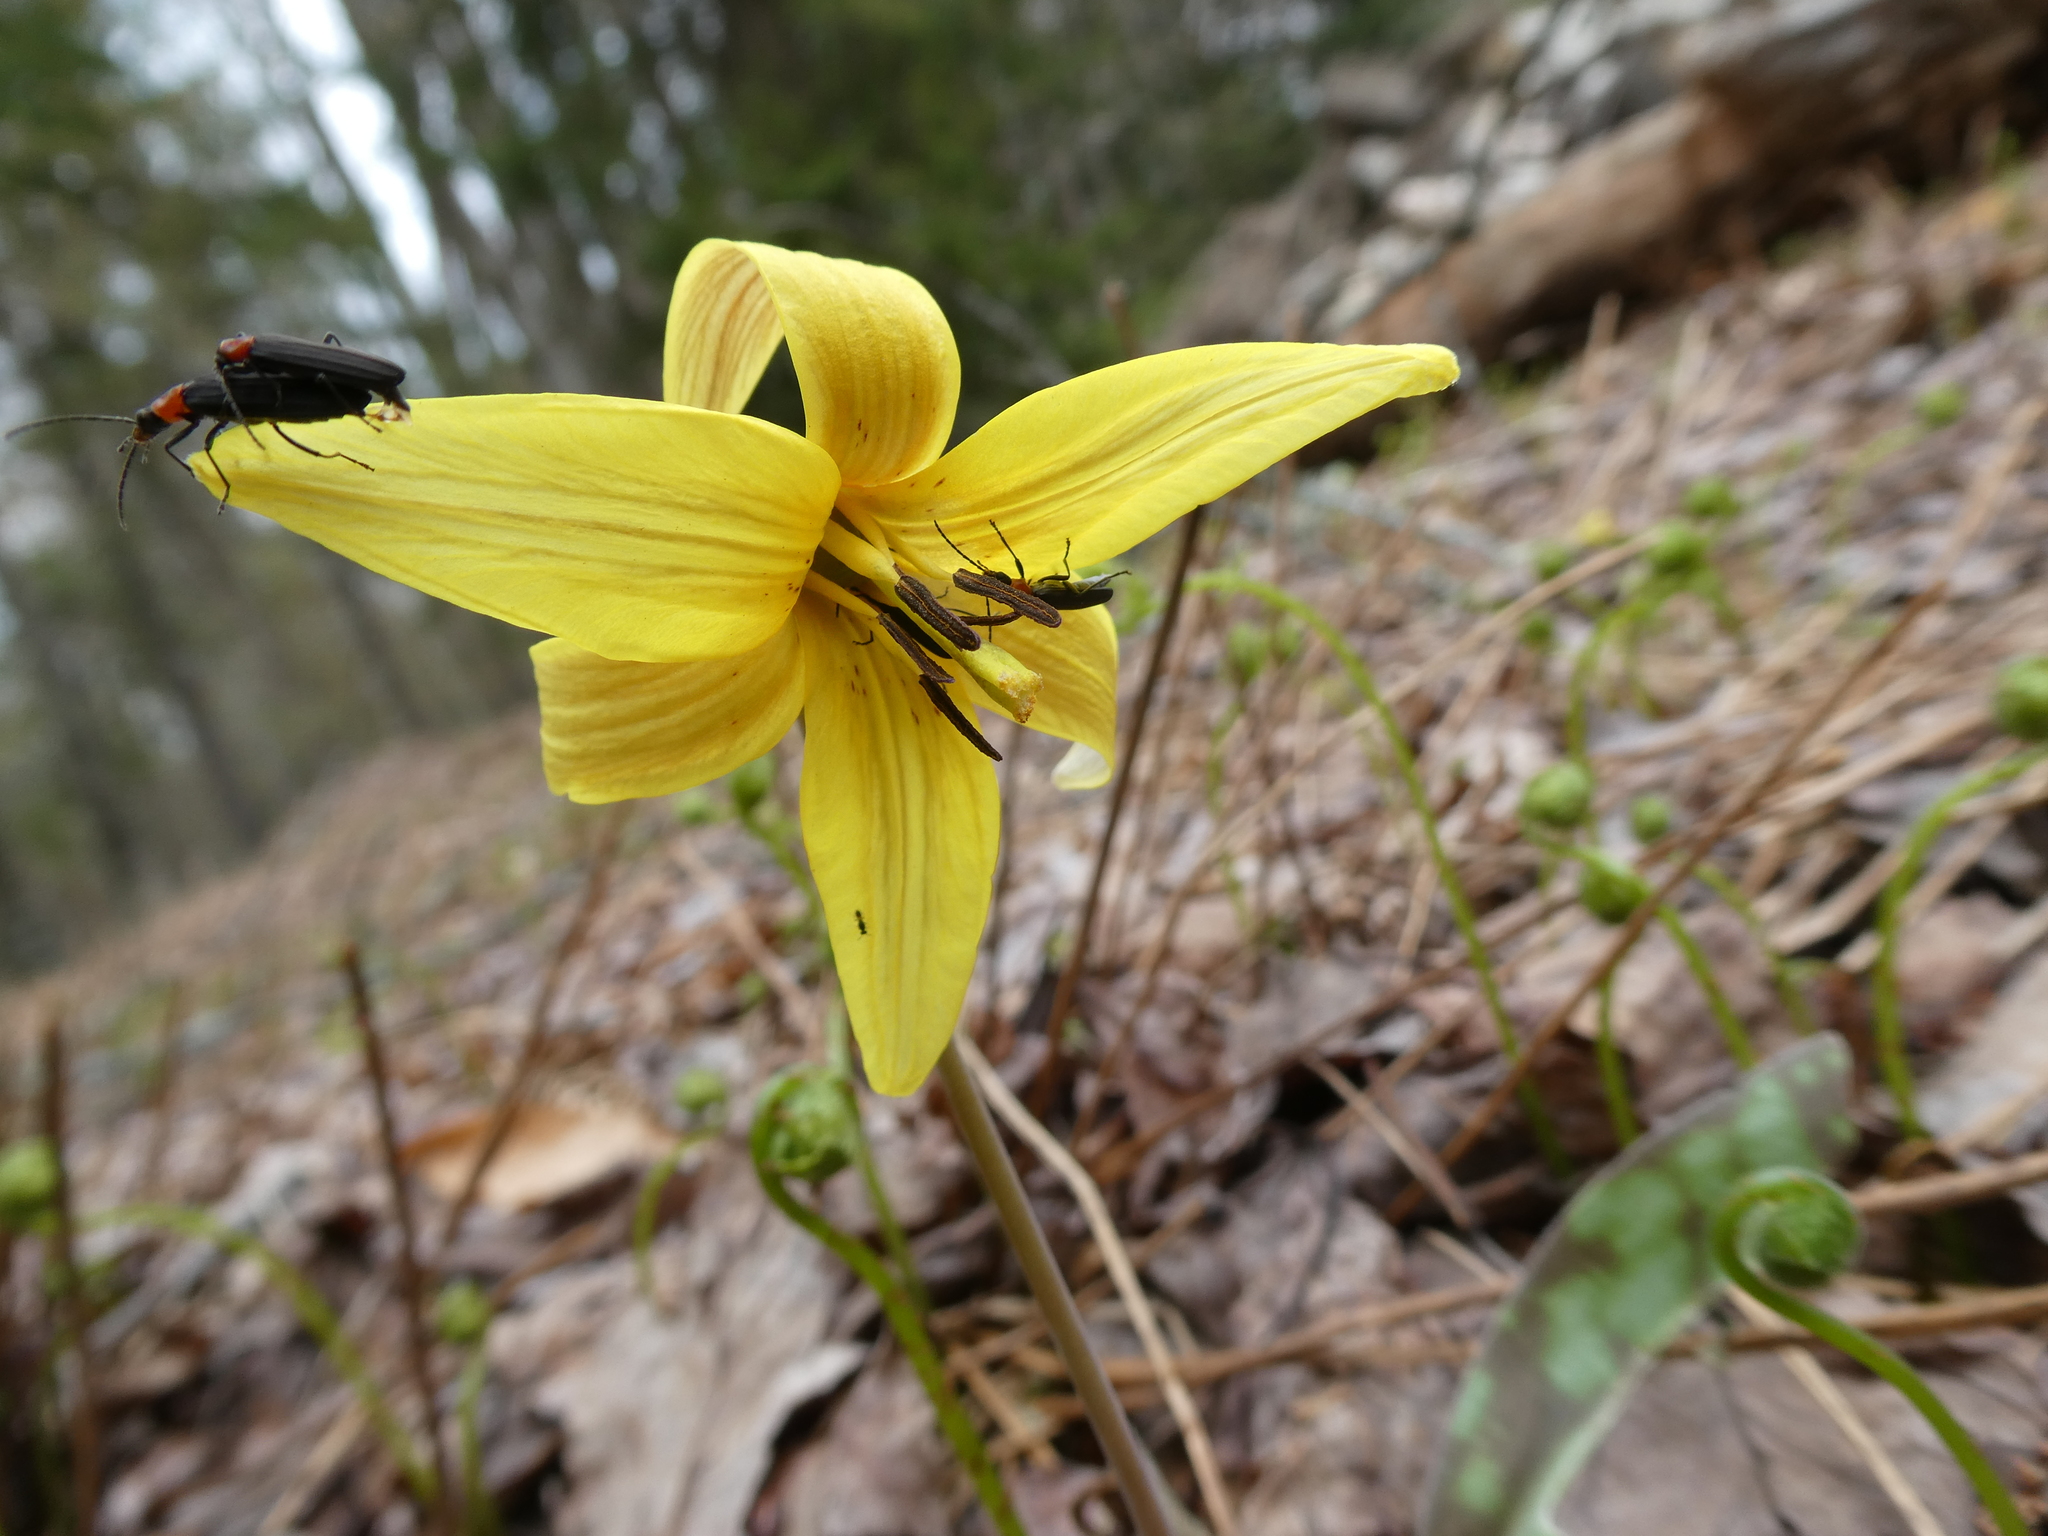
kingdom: Animalia
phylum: Arthropoda
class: Insecta
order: Coleoptera
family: Oedemeridae
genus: Ischnomera
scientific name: Ischnomera
